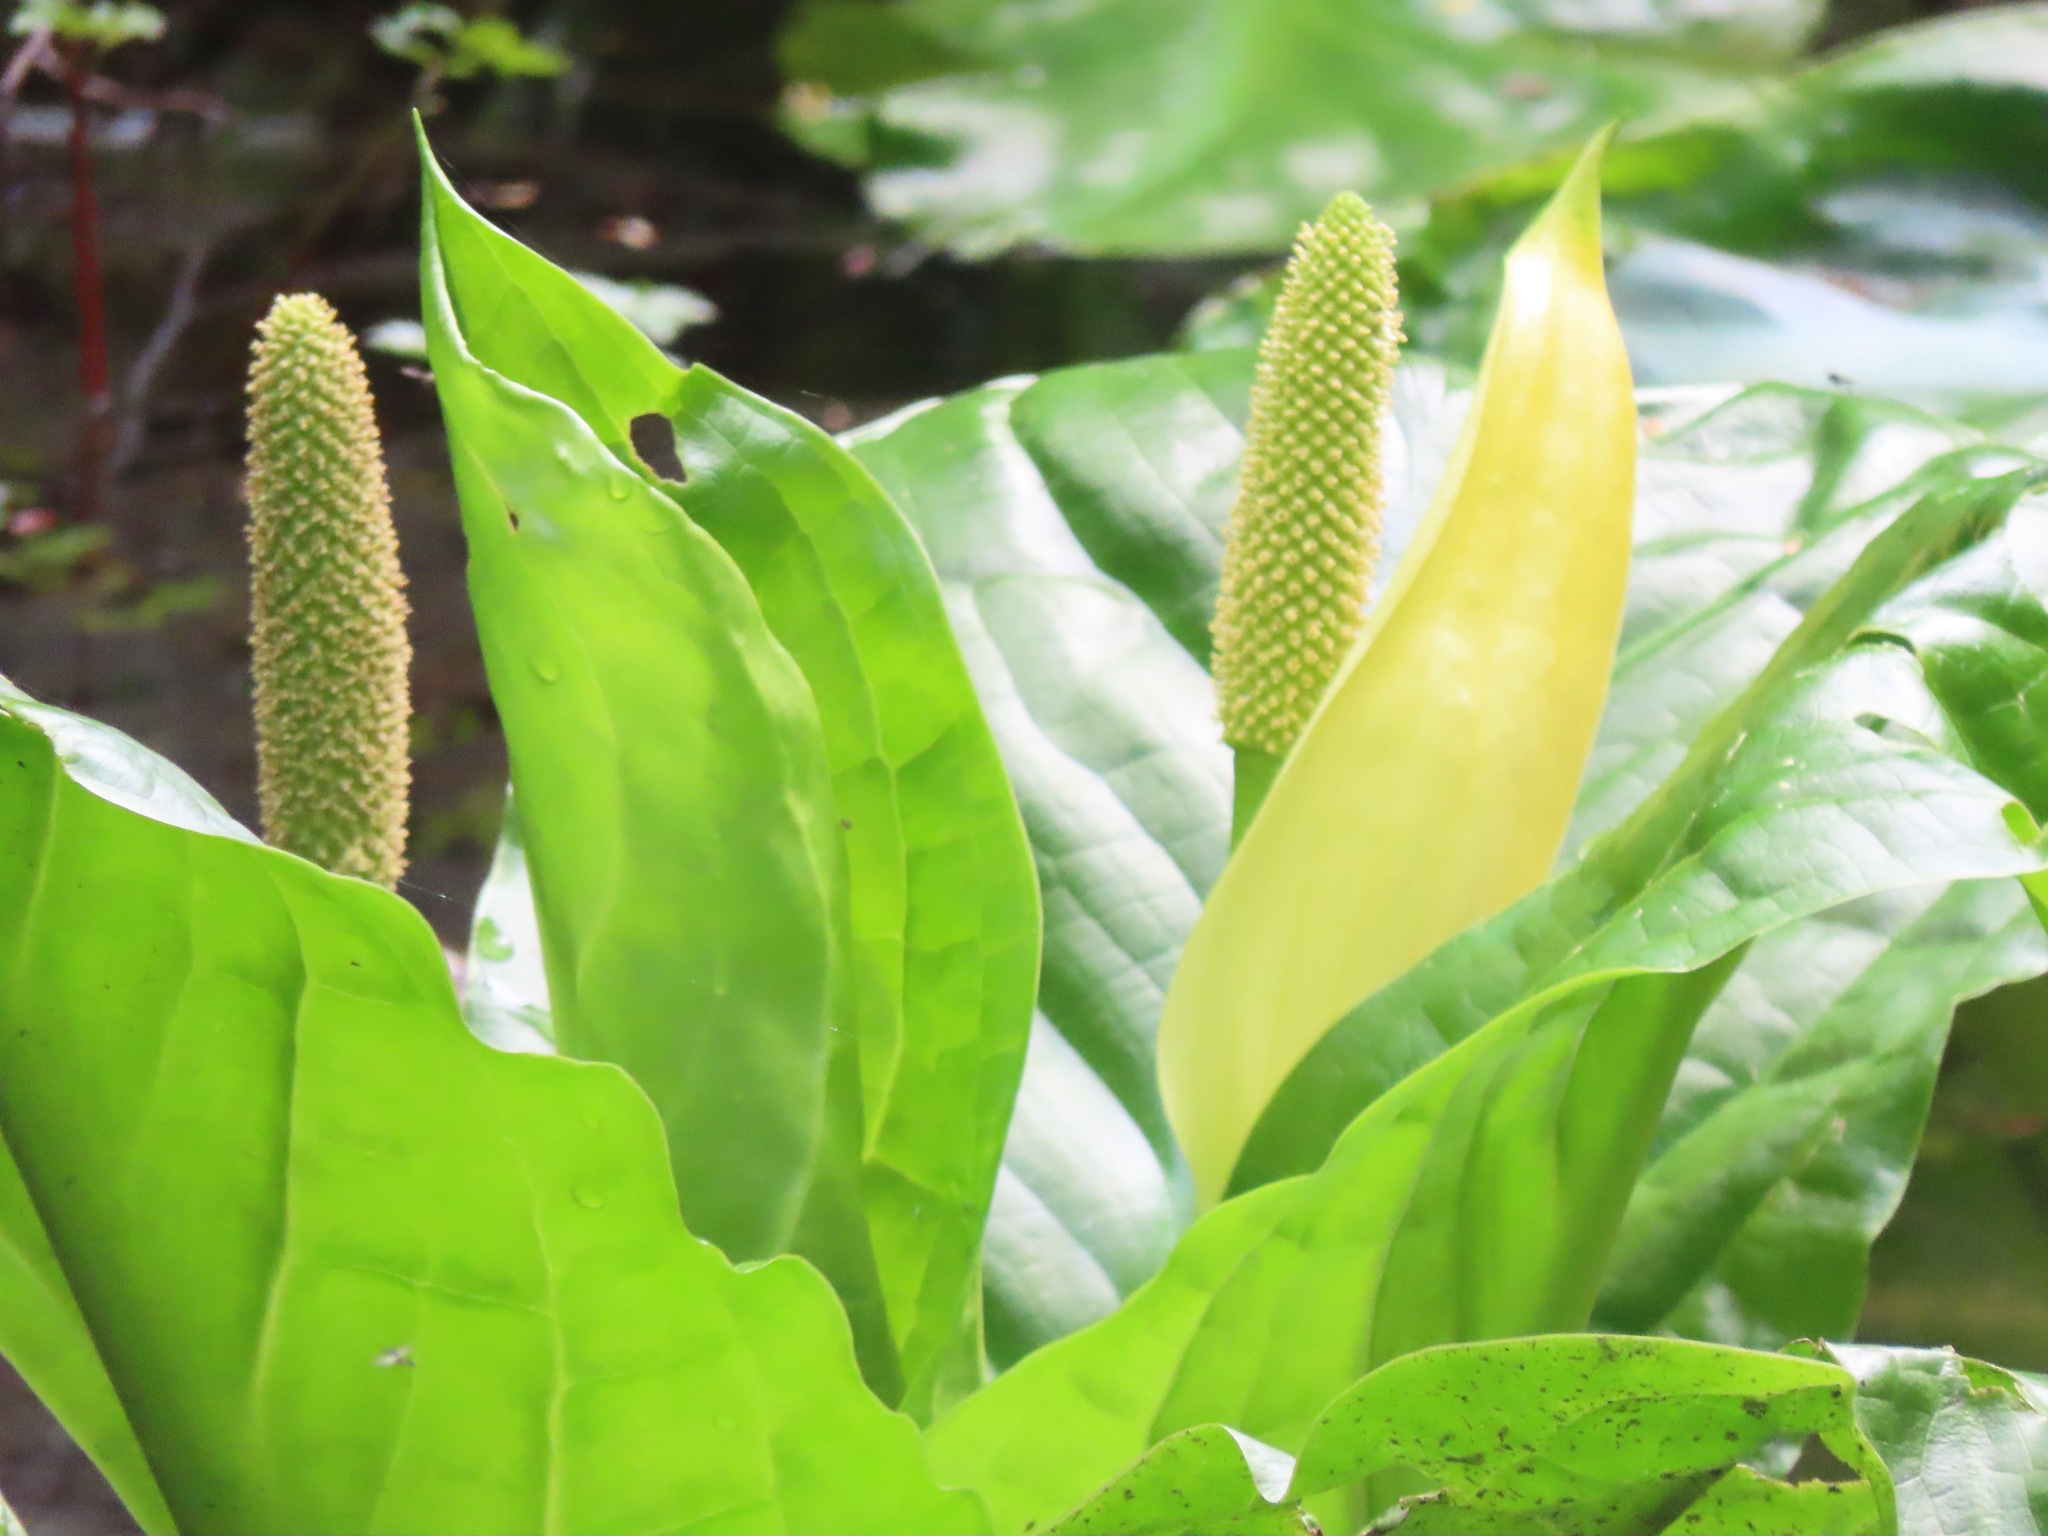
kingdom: Plantae
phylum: Tracheophyta
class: Liliopsida
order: Alismatales
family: Araceae
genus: Lysichiton
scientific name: Lysichiton americanus
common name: American skunk cabbage
